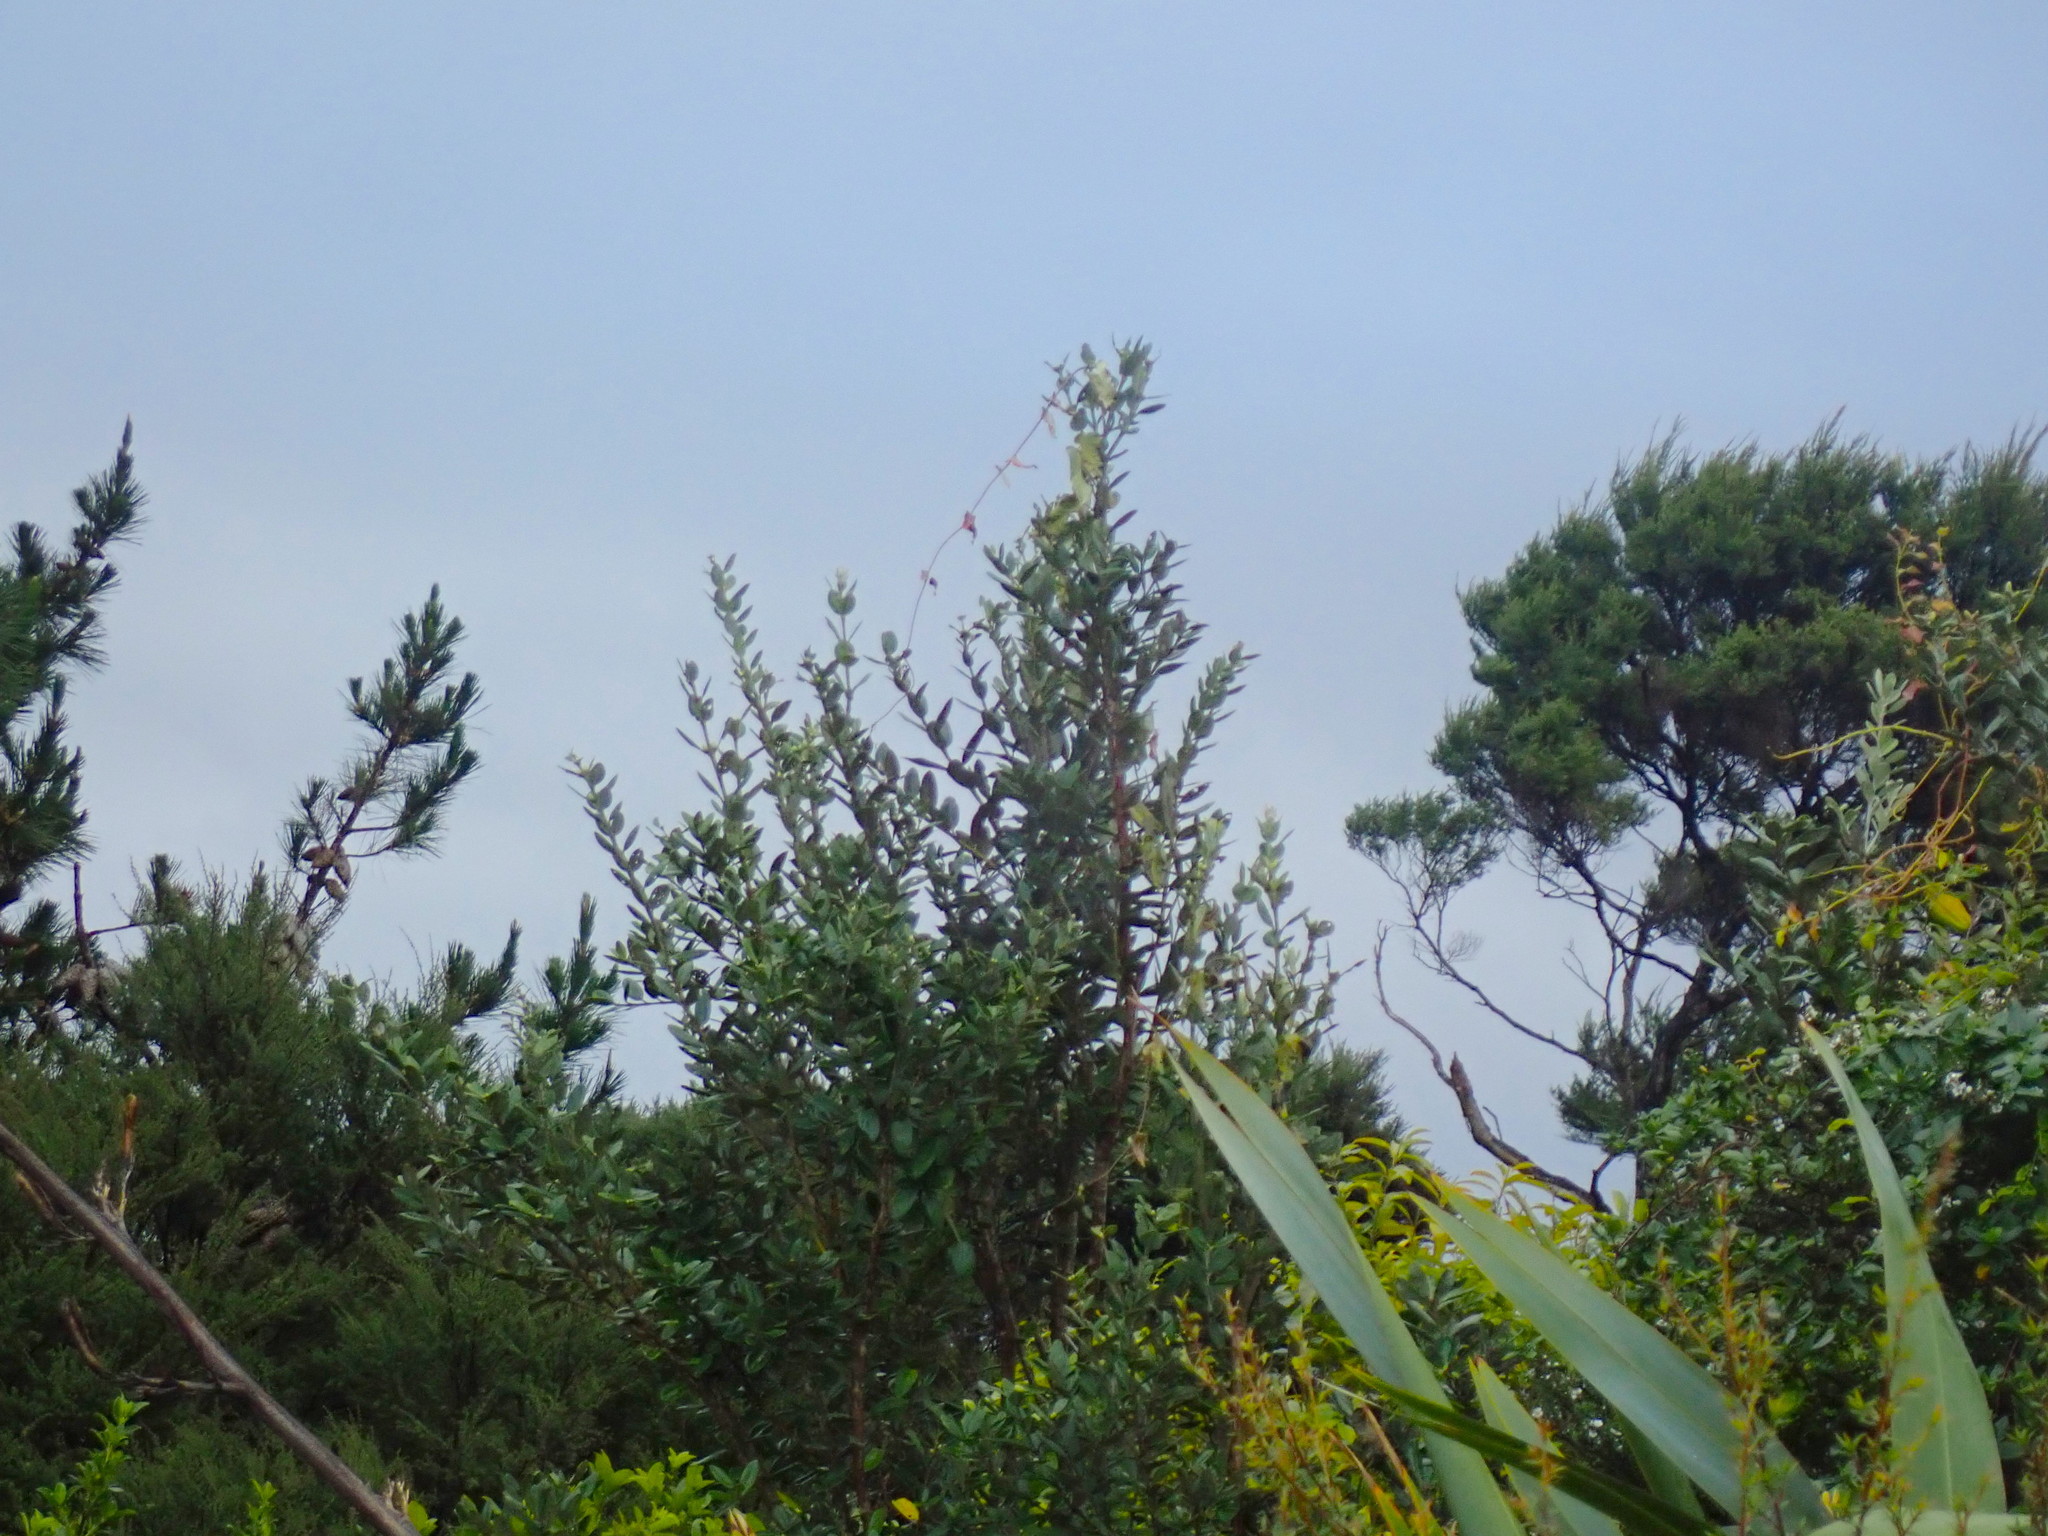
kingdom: Plantae
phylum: Tracheophyta
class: Magnoliopsida
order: Gentianales
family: Apocynaceae
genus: Araujia
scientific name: Araujia sericifera
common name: White bladderflower
